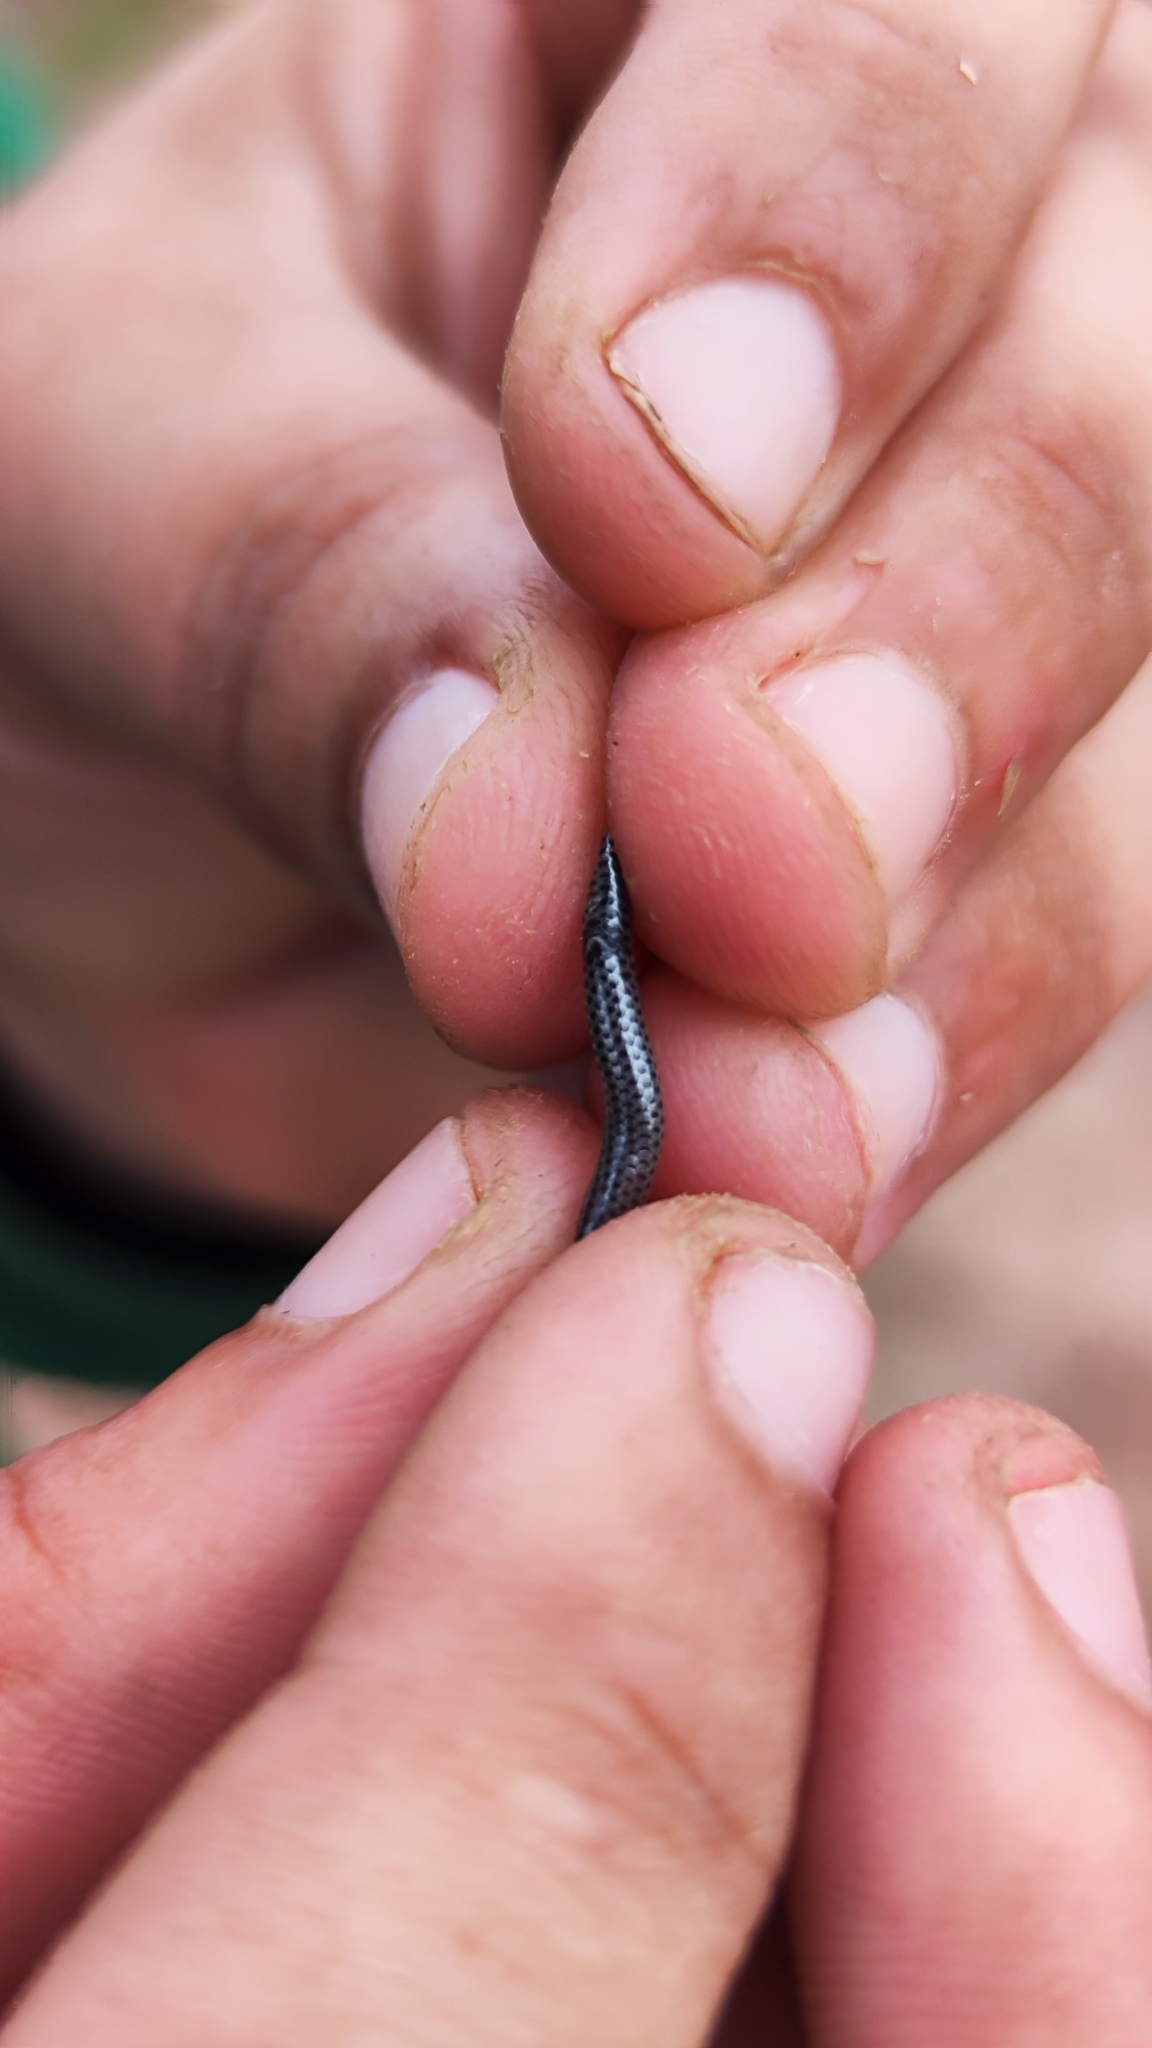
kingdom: Animalia
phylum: Chordata
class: Squamata
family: Leptotyphlopidae
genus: Epictia
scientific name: Epictia borapeliotes
